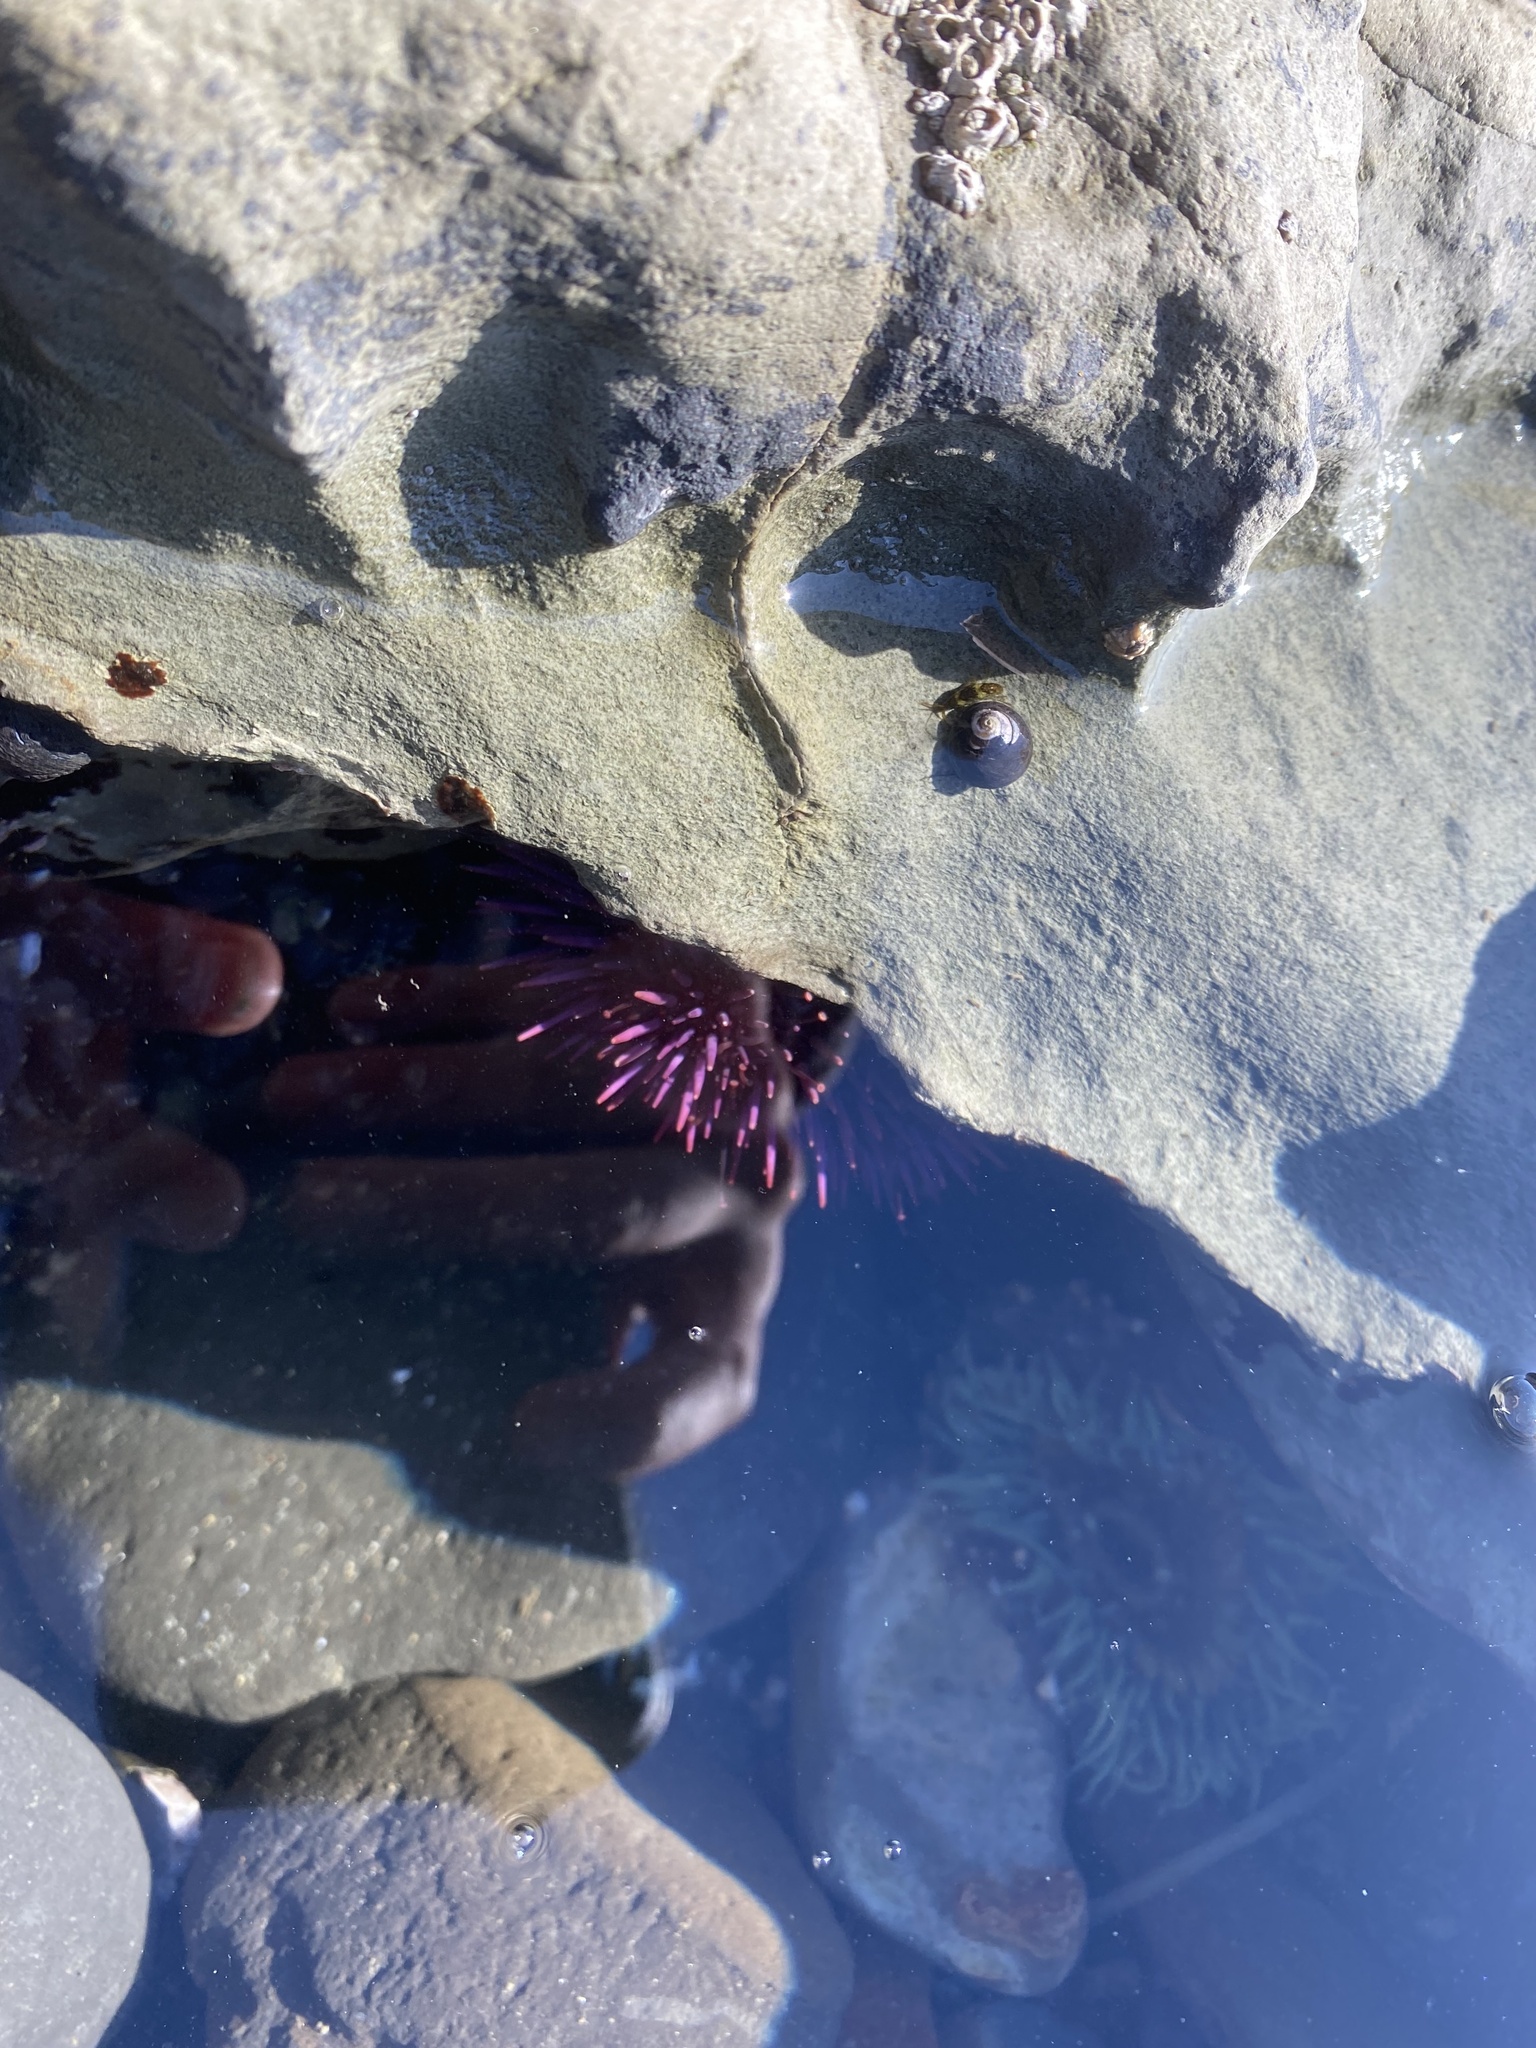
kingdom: Animalia
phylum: Echinodermata
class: Echinoidea
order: Camarodonta
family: Strongylocentrotidae
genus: Strongylocentrotus
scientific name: Strongylocentrotus purpuratus
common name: Purple sea urchin
